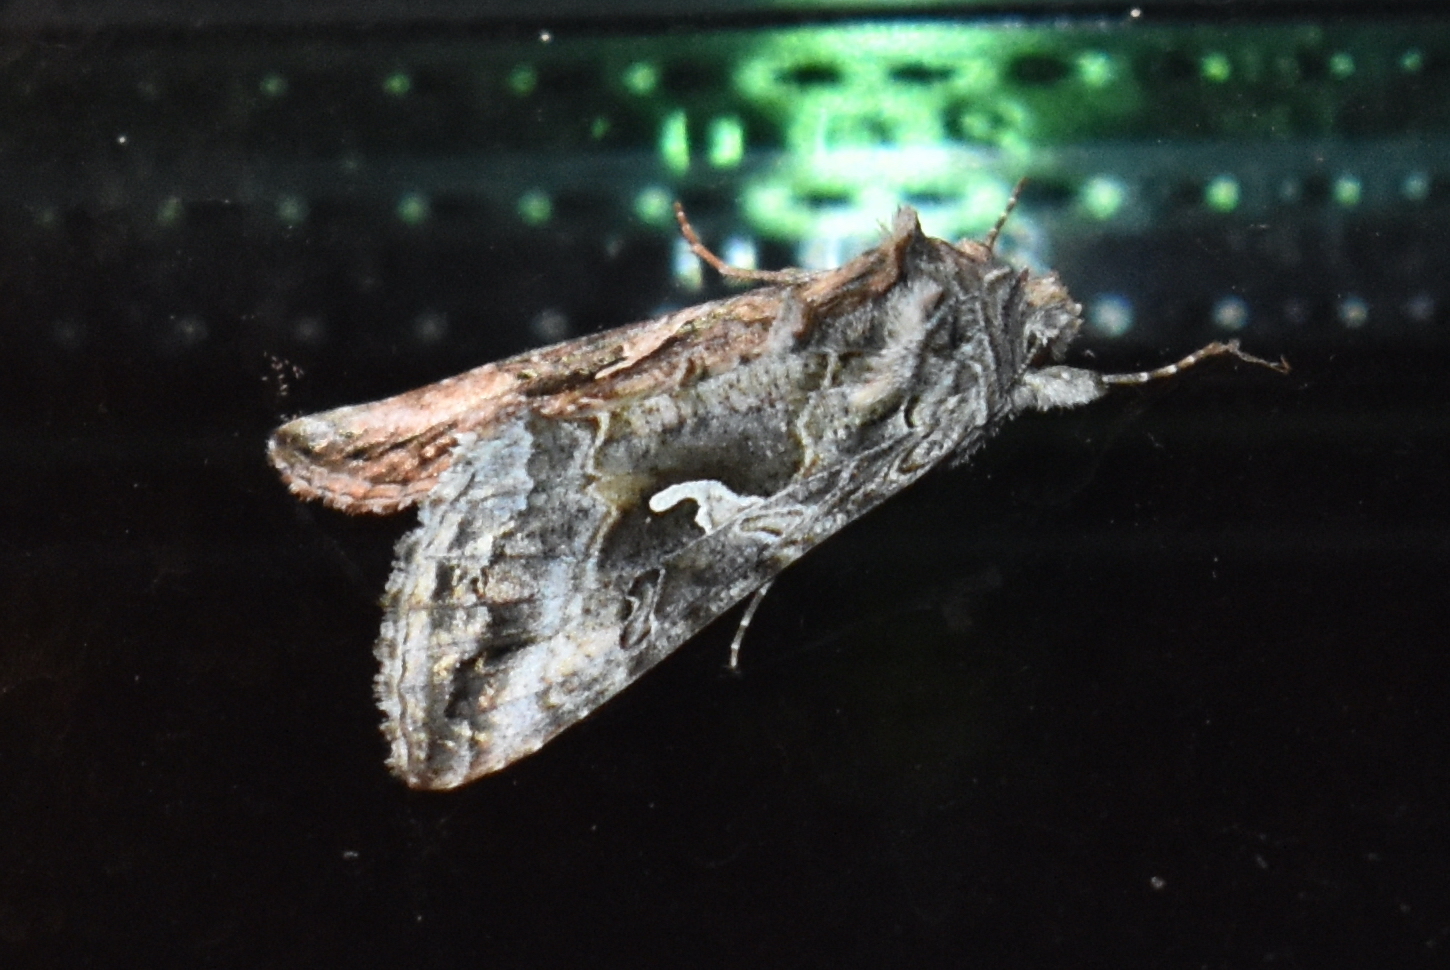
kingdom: Animalia
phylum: Arthropoda
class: Insecta
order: Lepidoptera
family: Noctuidae
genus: Autographa
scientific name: Autographa californica
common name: Alfalfa looper
